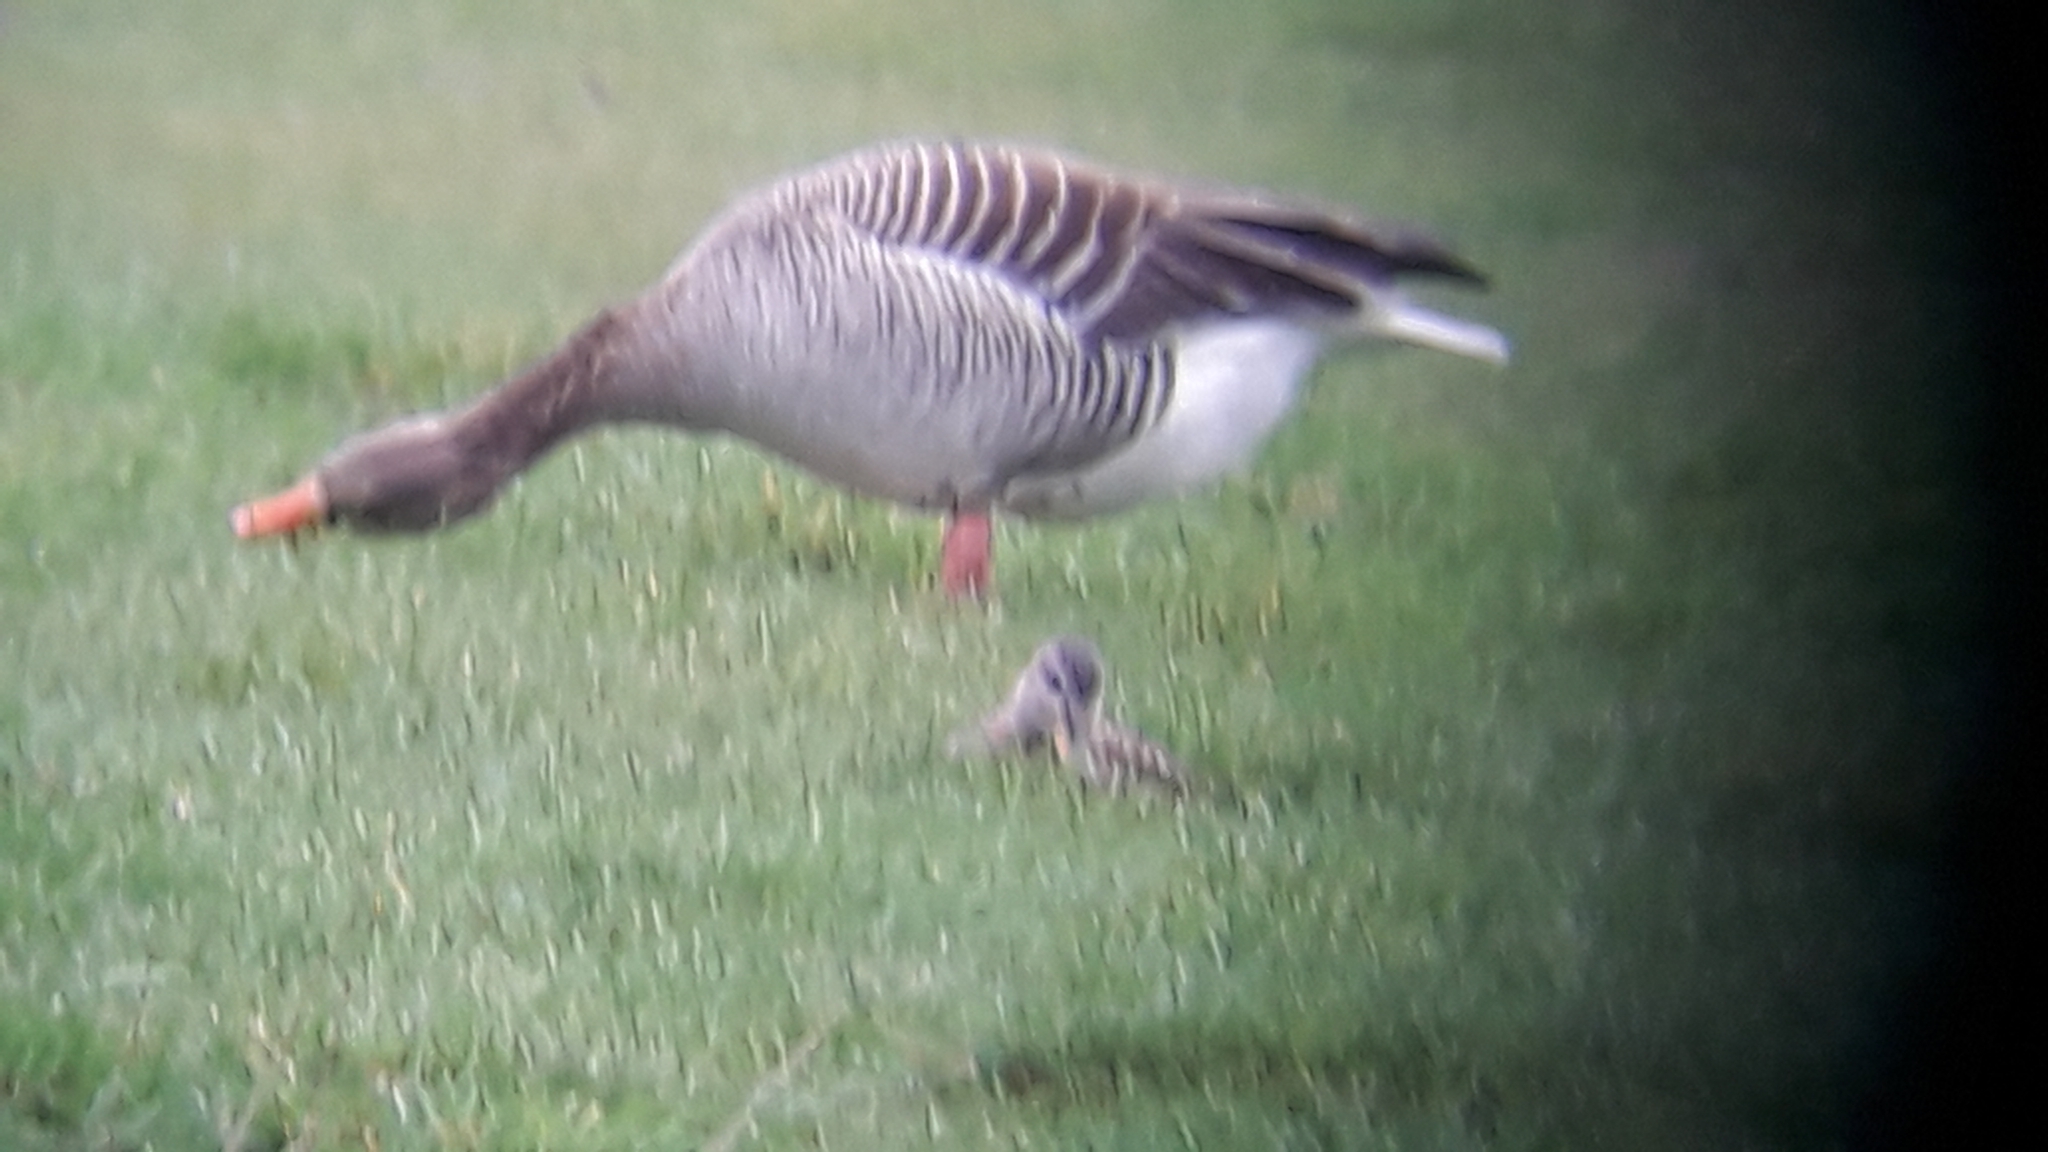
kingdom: Animalia
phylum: Chordata
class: Aves
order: Anseriformes
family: Anatidae
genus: Anser
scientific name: Anser anser
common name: Greylag goose
